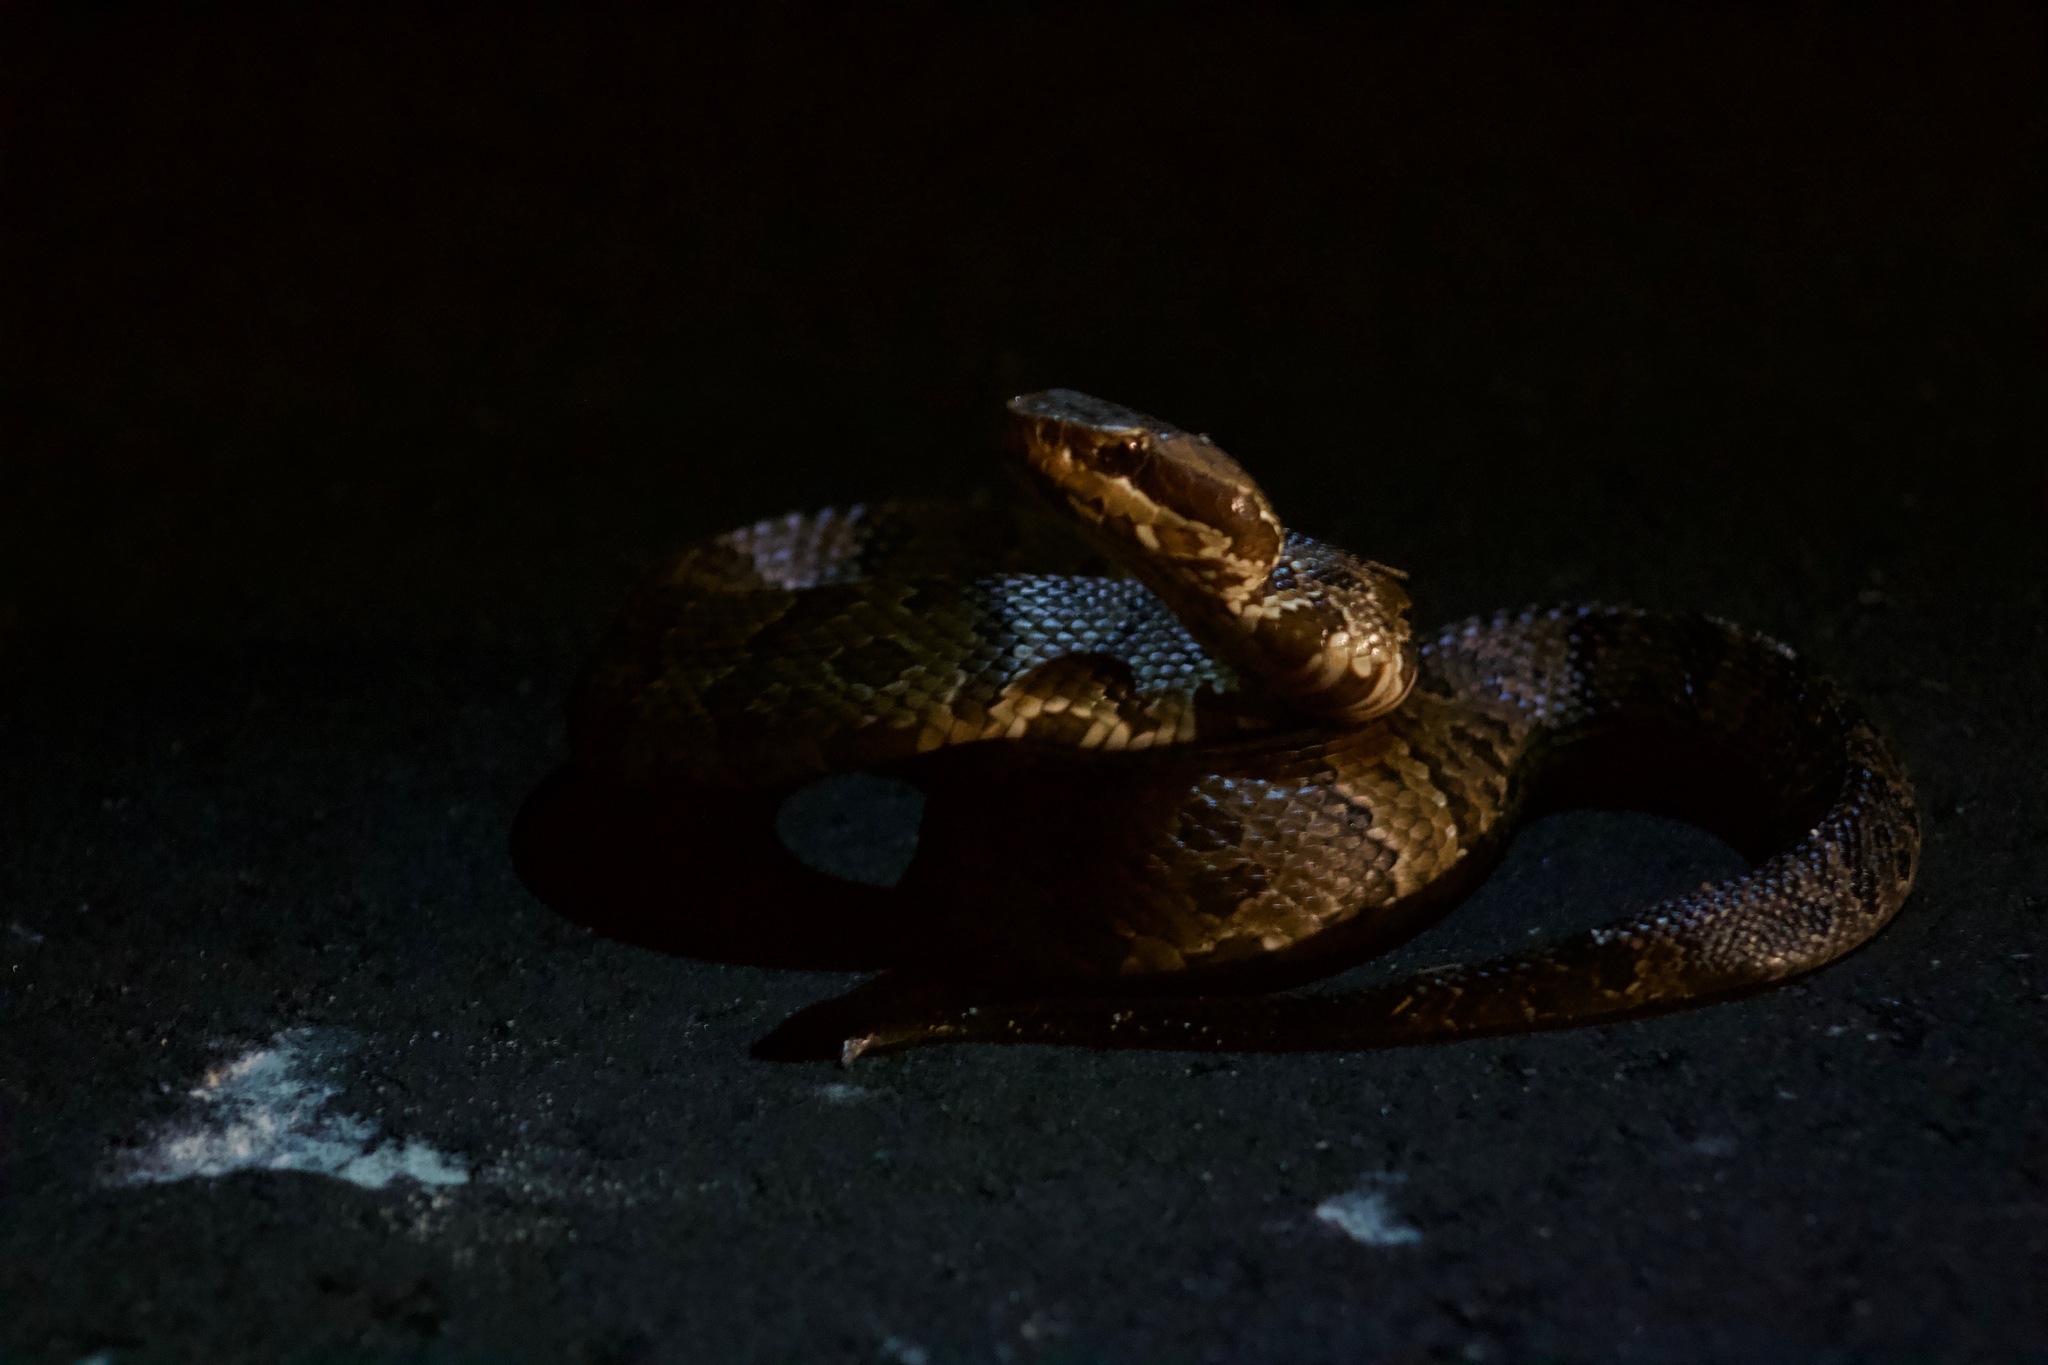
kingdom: Animalia
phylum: Chordata
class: Squamata
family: Viperidae
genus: Agkistrodon
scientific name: Agkistrodon conanti
